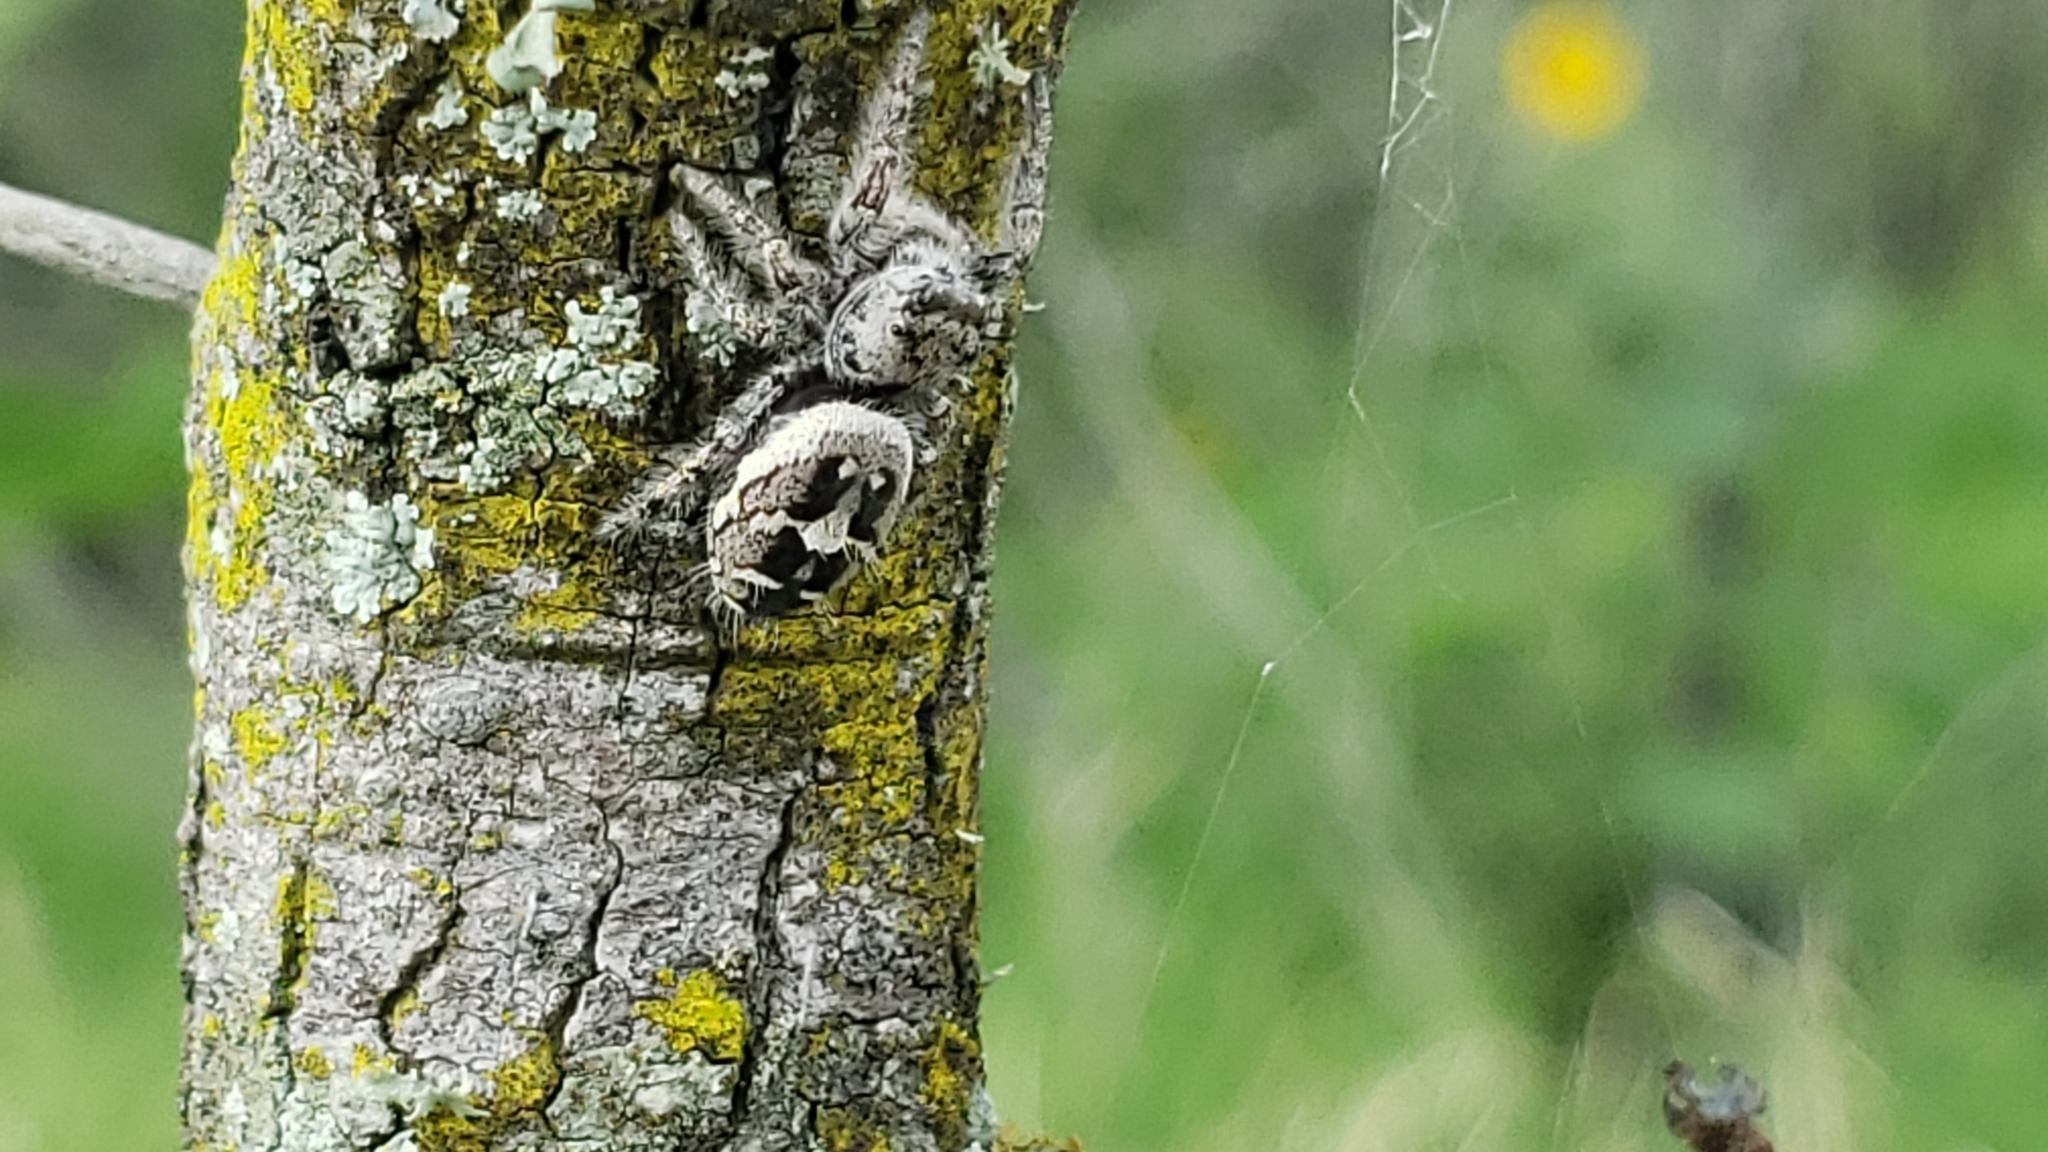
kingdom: Animalia
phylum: Arthropoda
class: Arachnida
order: Araneae
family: Salticidae
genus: Phidippus
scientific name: Phidippus carolinensis
